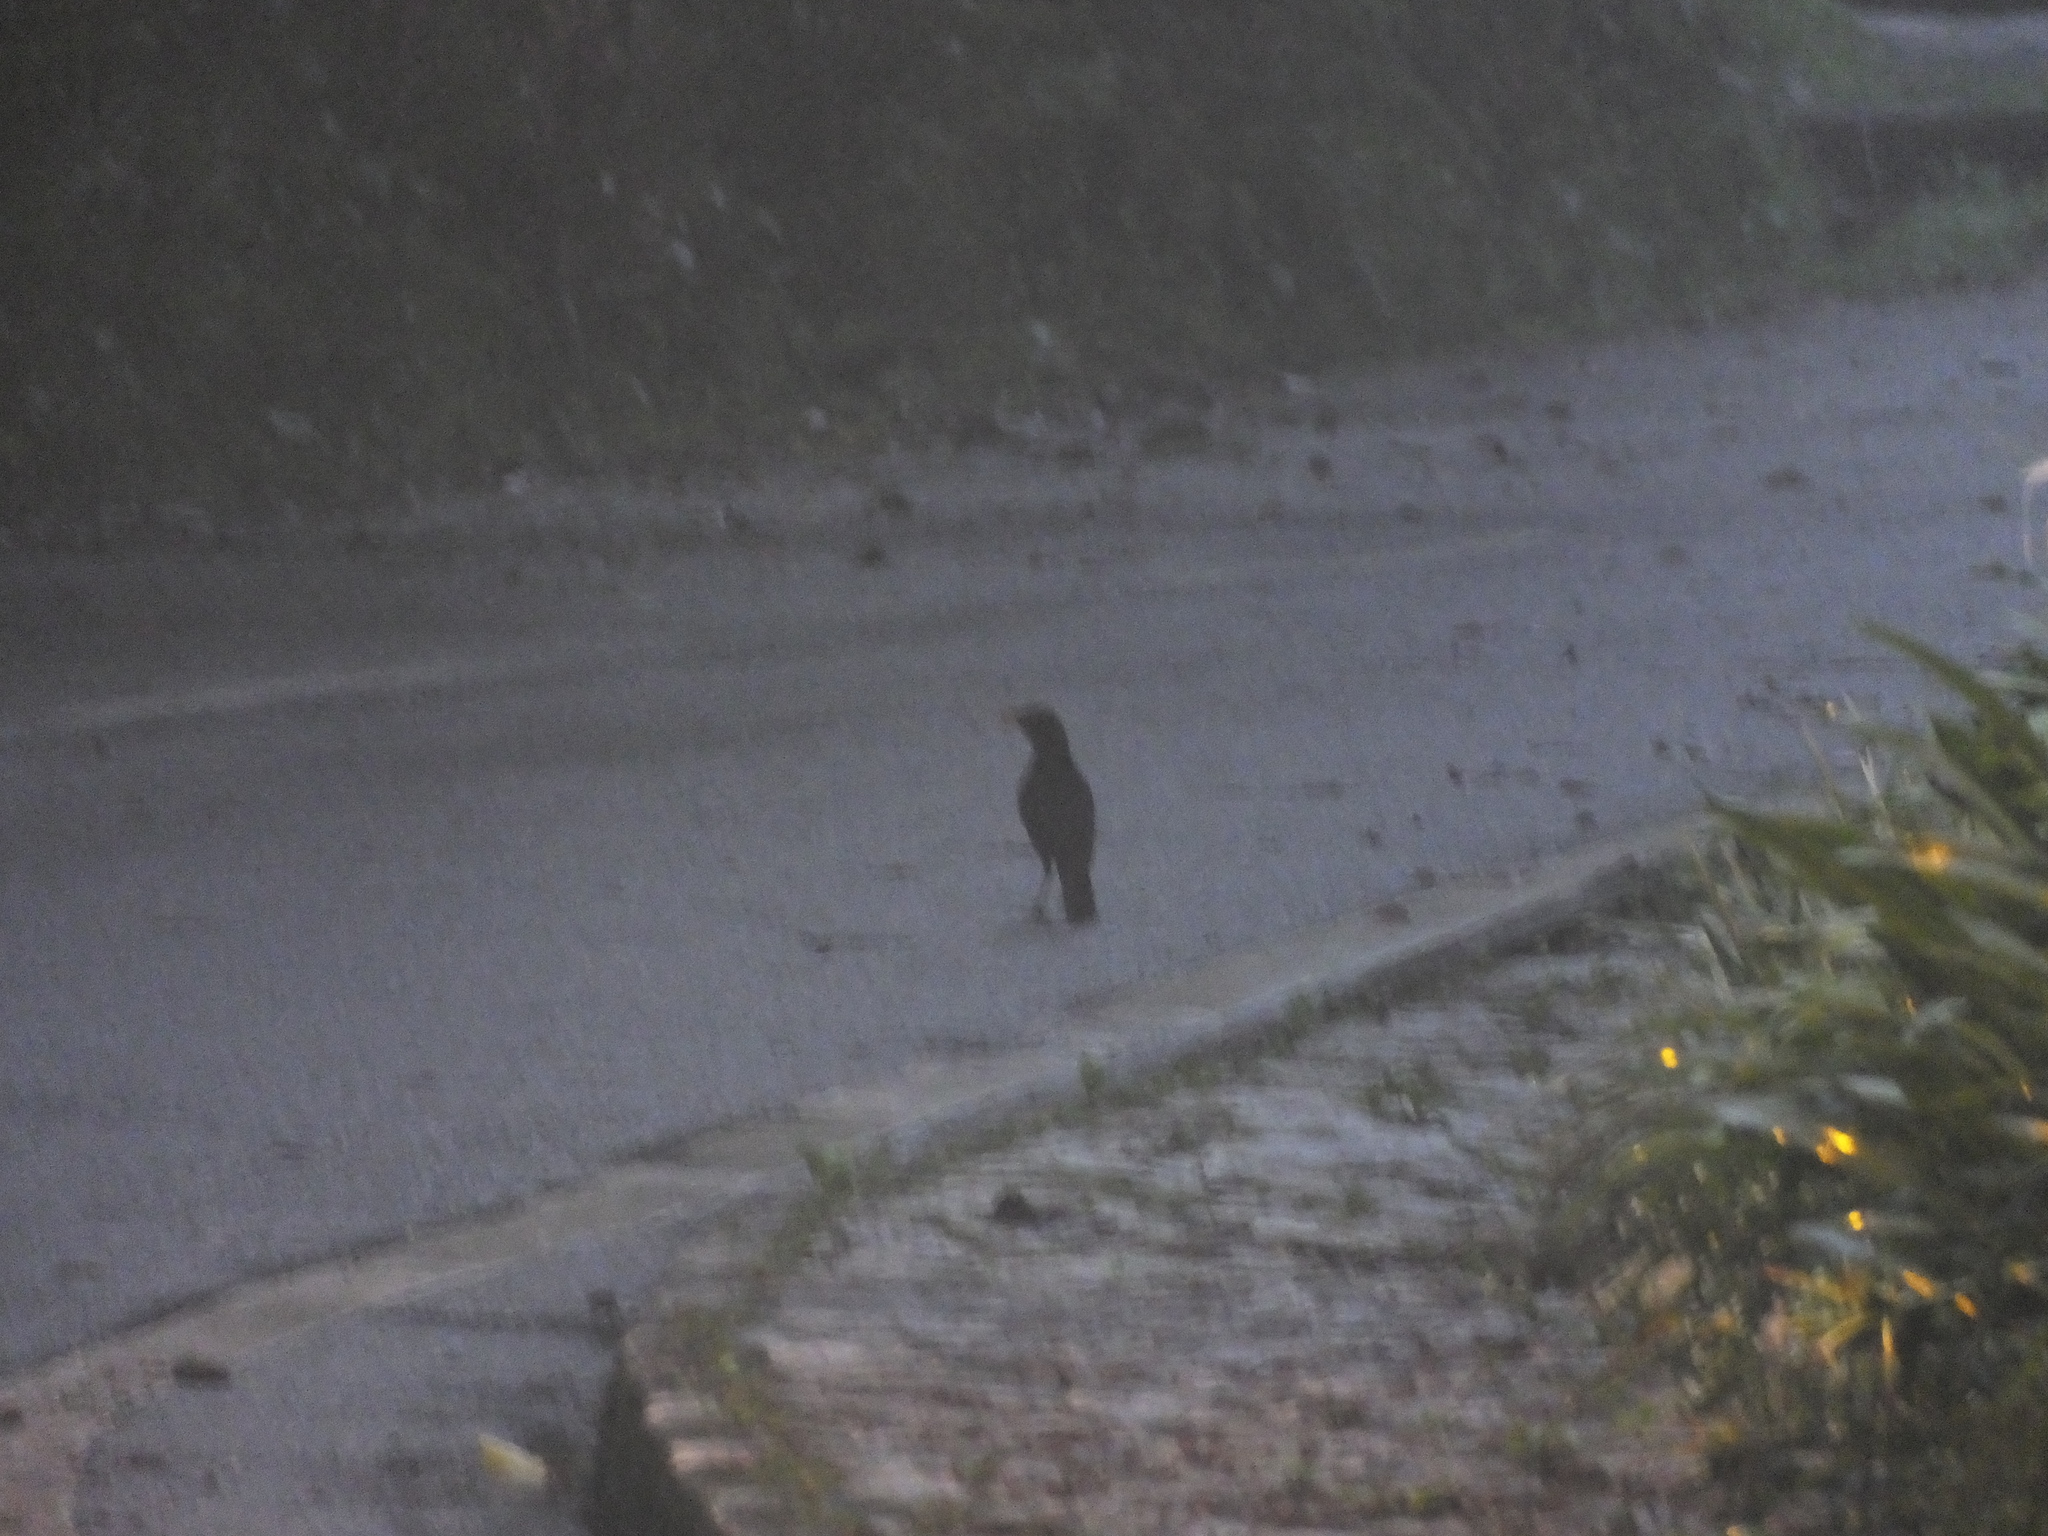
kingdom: Animalia
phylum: Chordata
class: Aves
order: Passeriformes
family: Muscicapidae
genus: Myophonus
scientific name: Myophonus robinsoni
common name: Malayan whistling-thrush
